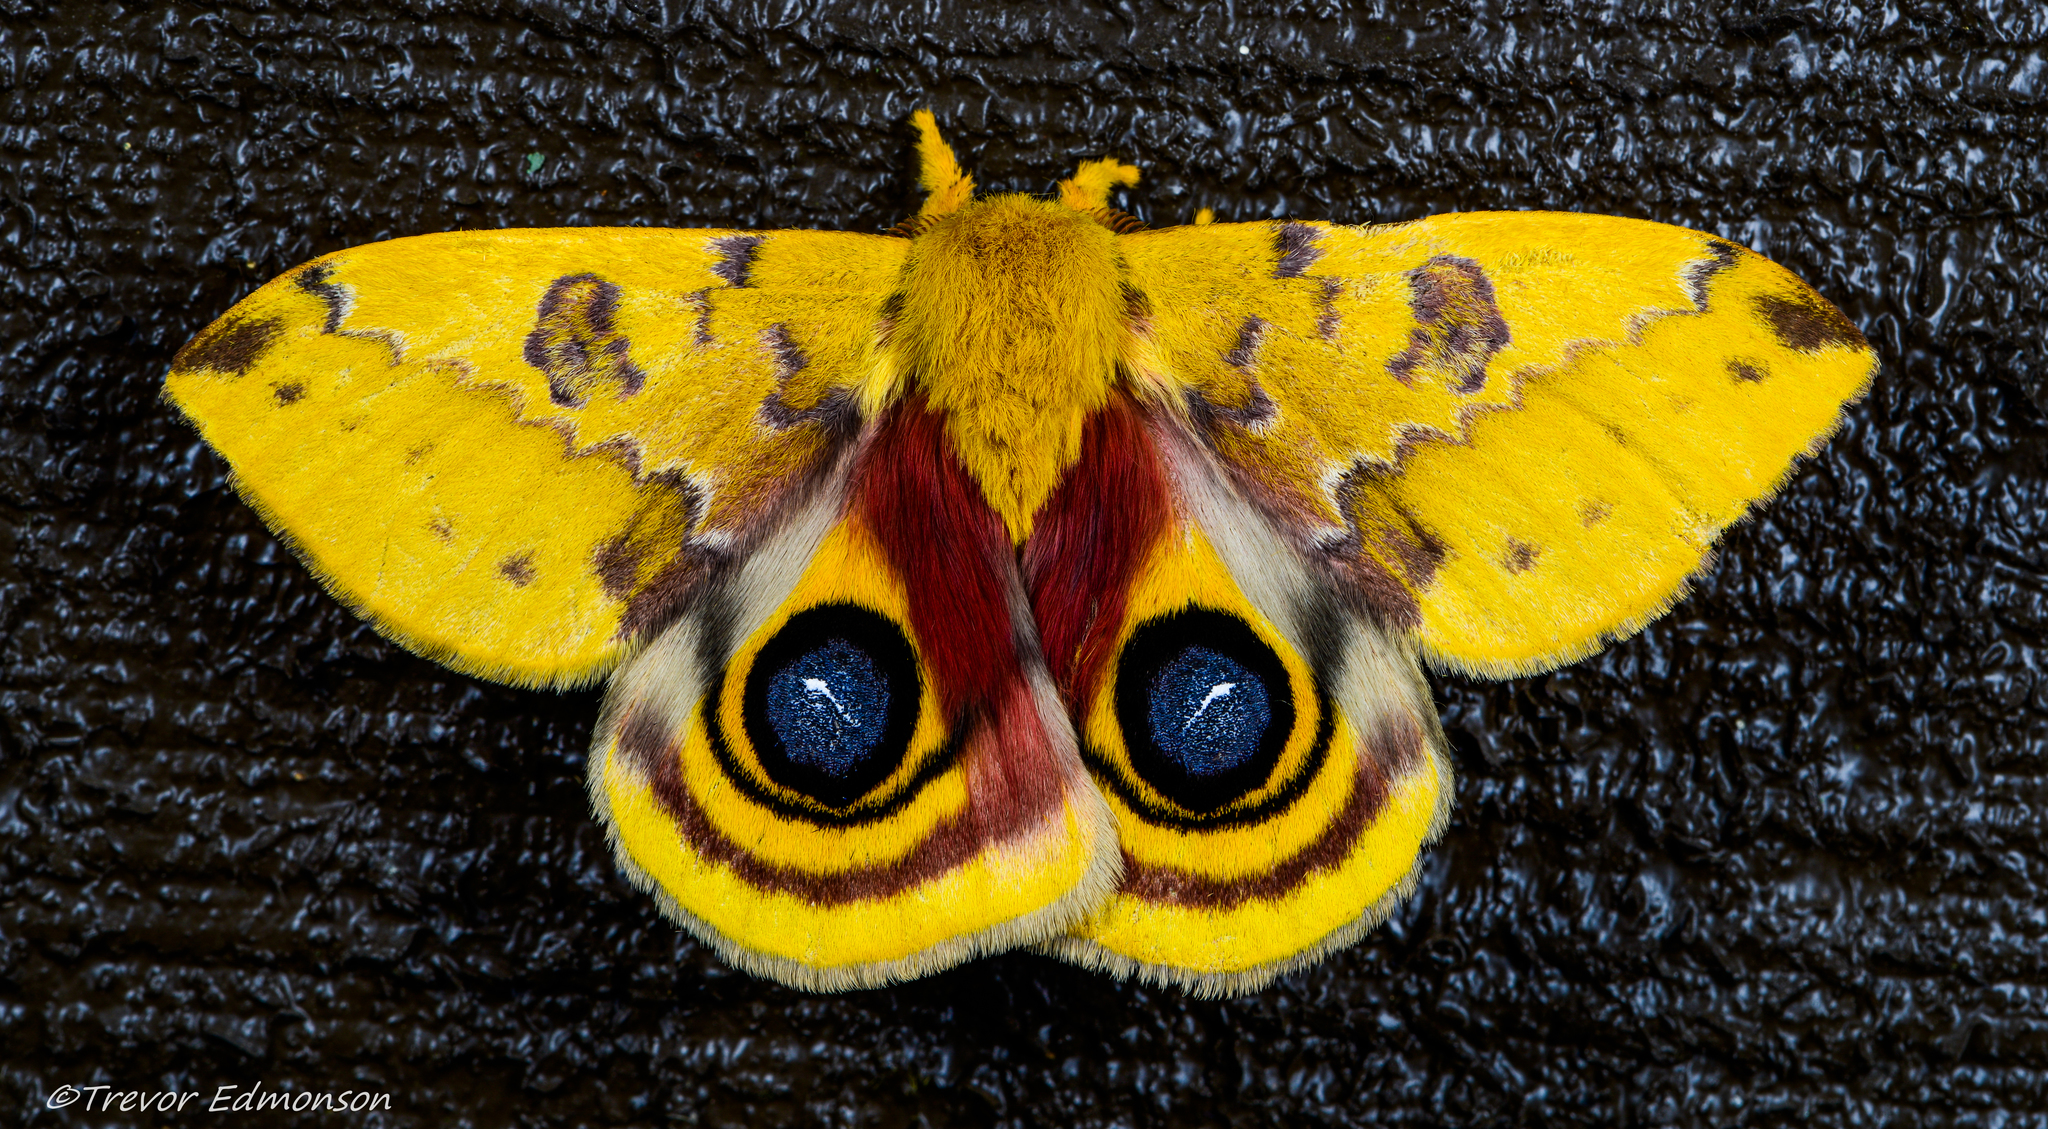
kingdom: Animalia
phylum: Arthropoda
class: Insecta
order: Lepidoptera
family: Saturniidae
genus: Automeris
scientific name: Automeris io
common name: Io moth
